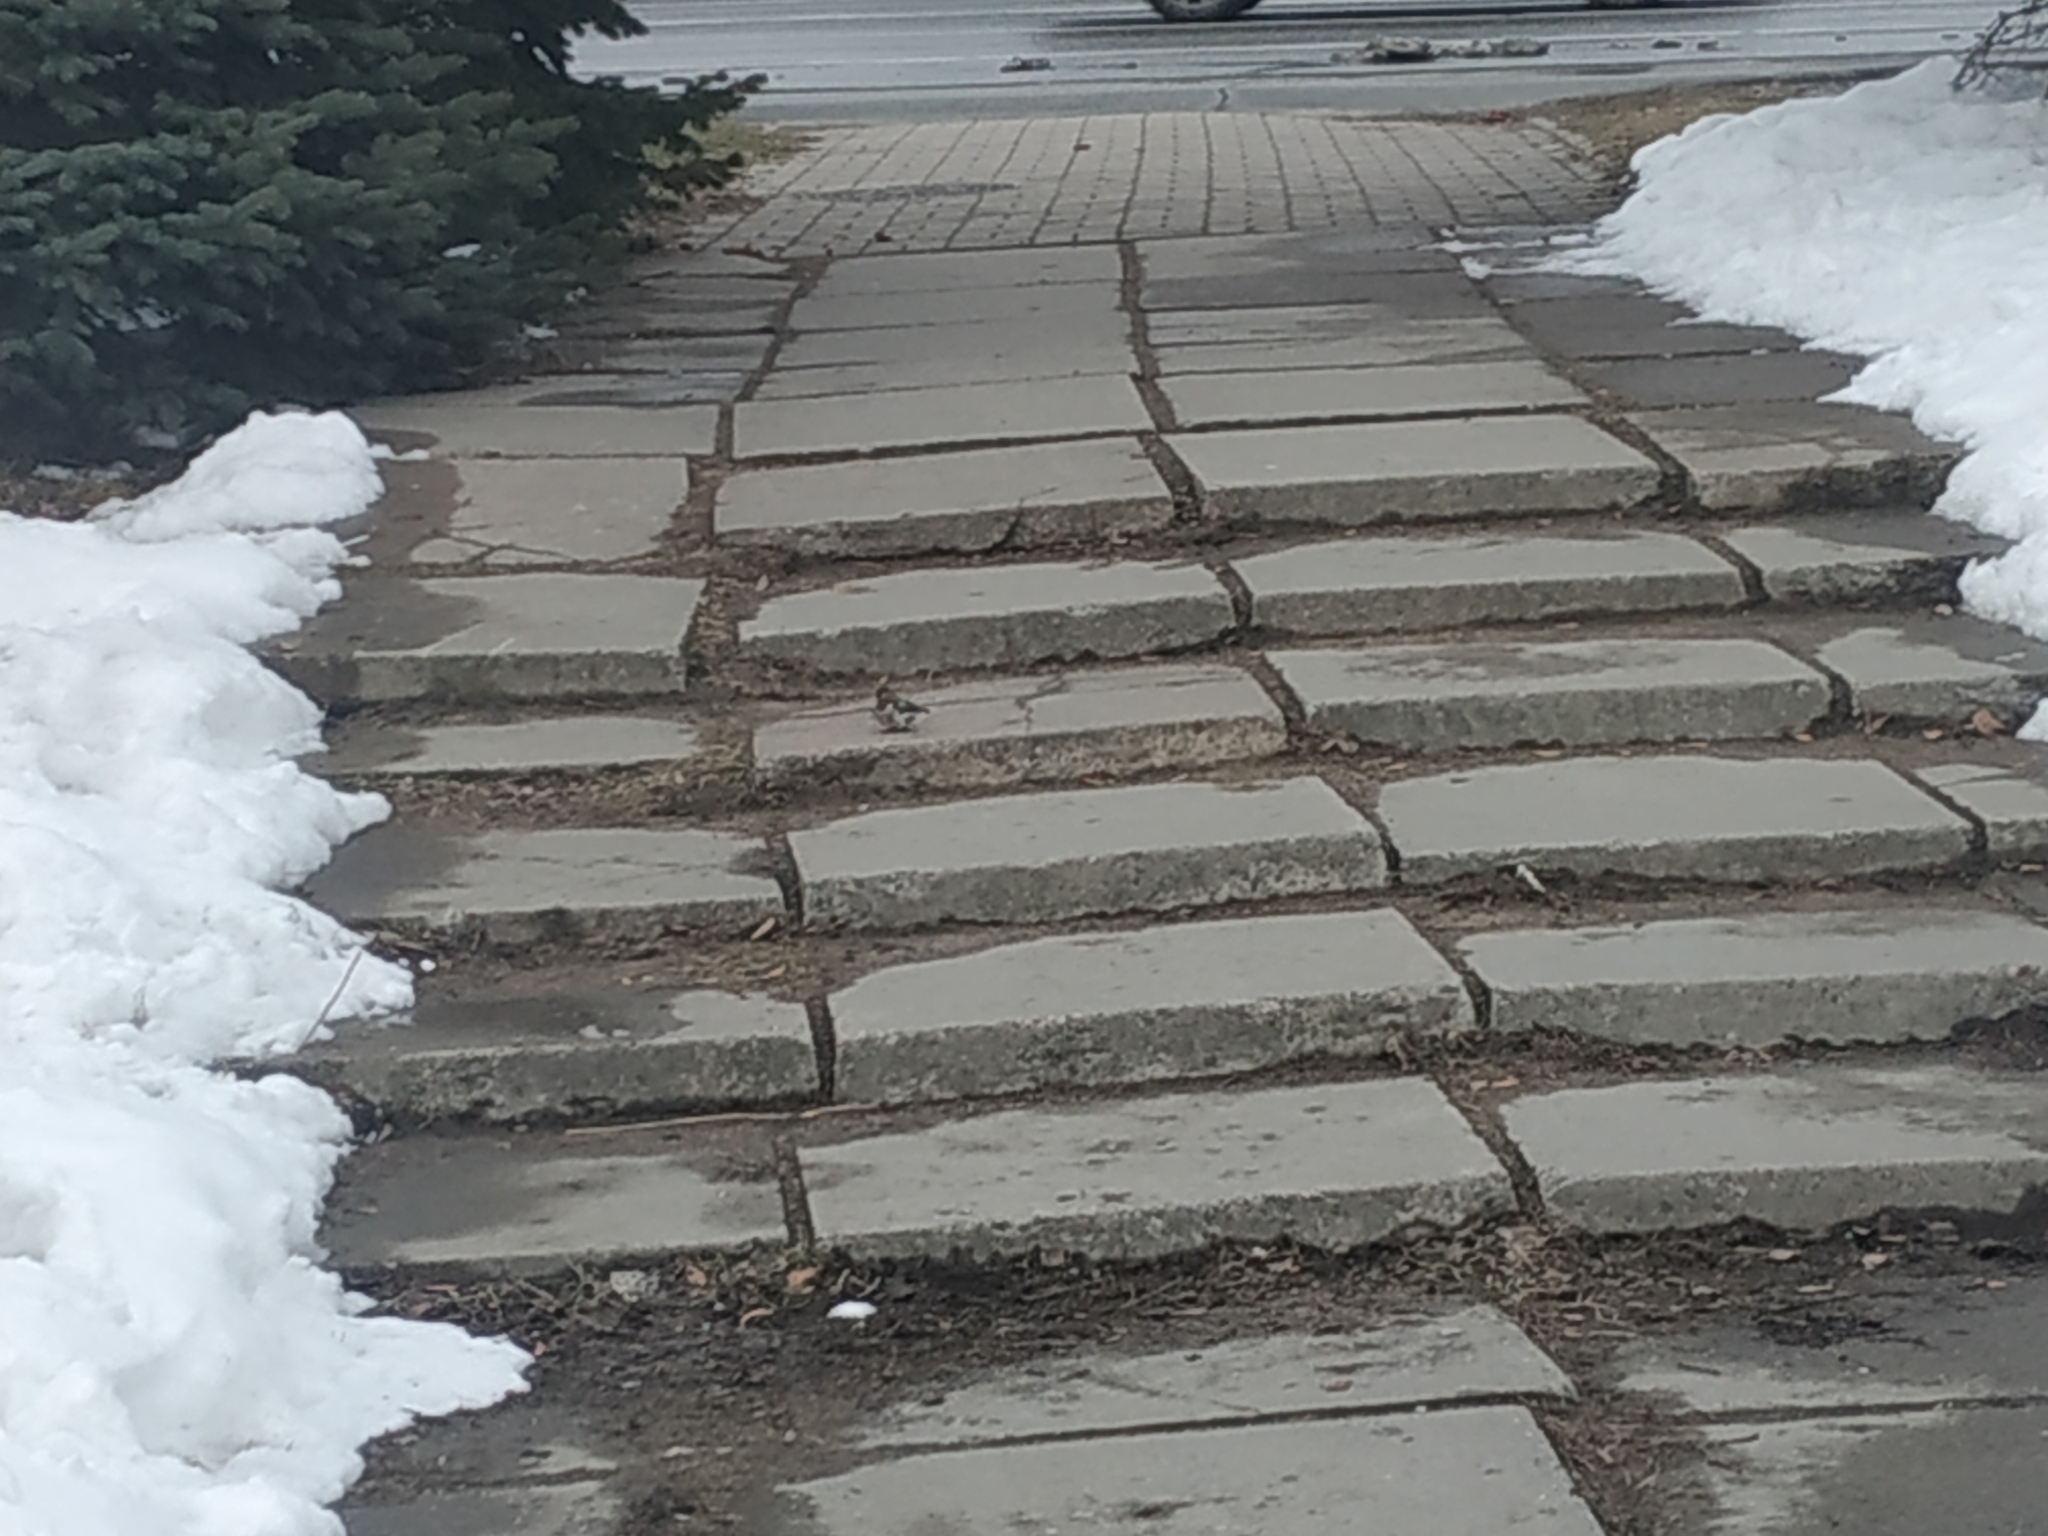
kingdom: Animalia
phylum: Chordata
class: Aves
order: Passeriformes
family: Fringillidae
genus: Fringilla
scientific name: Fringilla coelebs
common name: Common chaffinch
